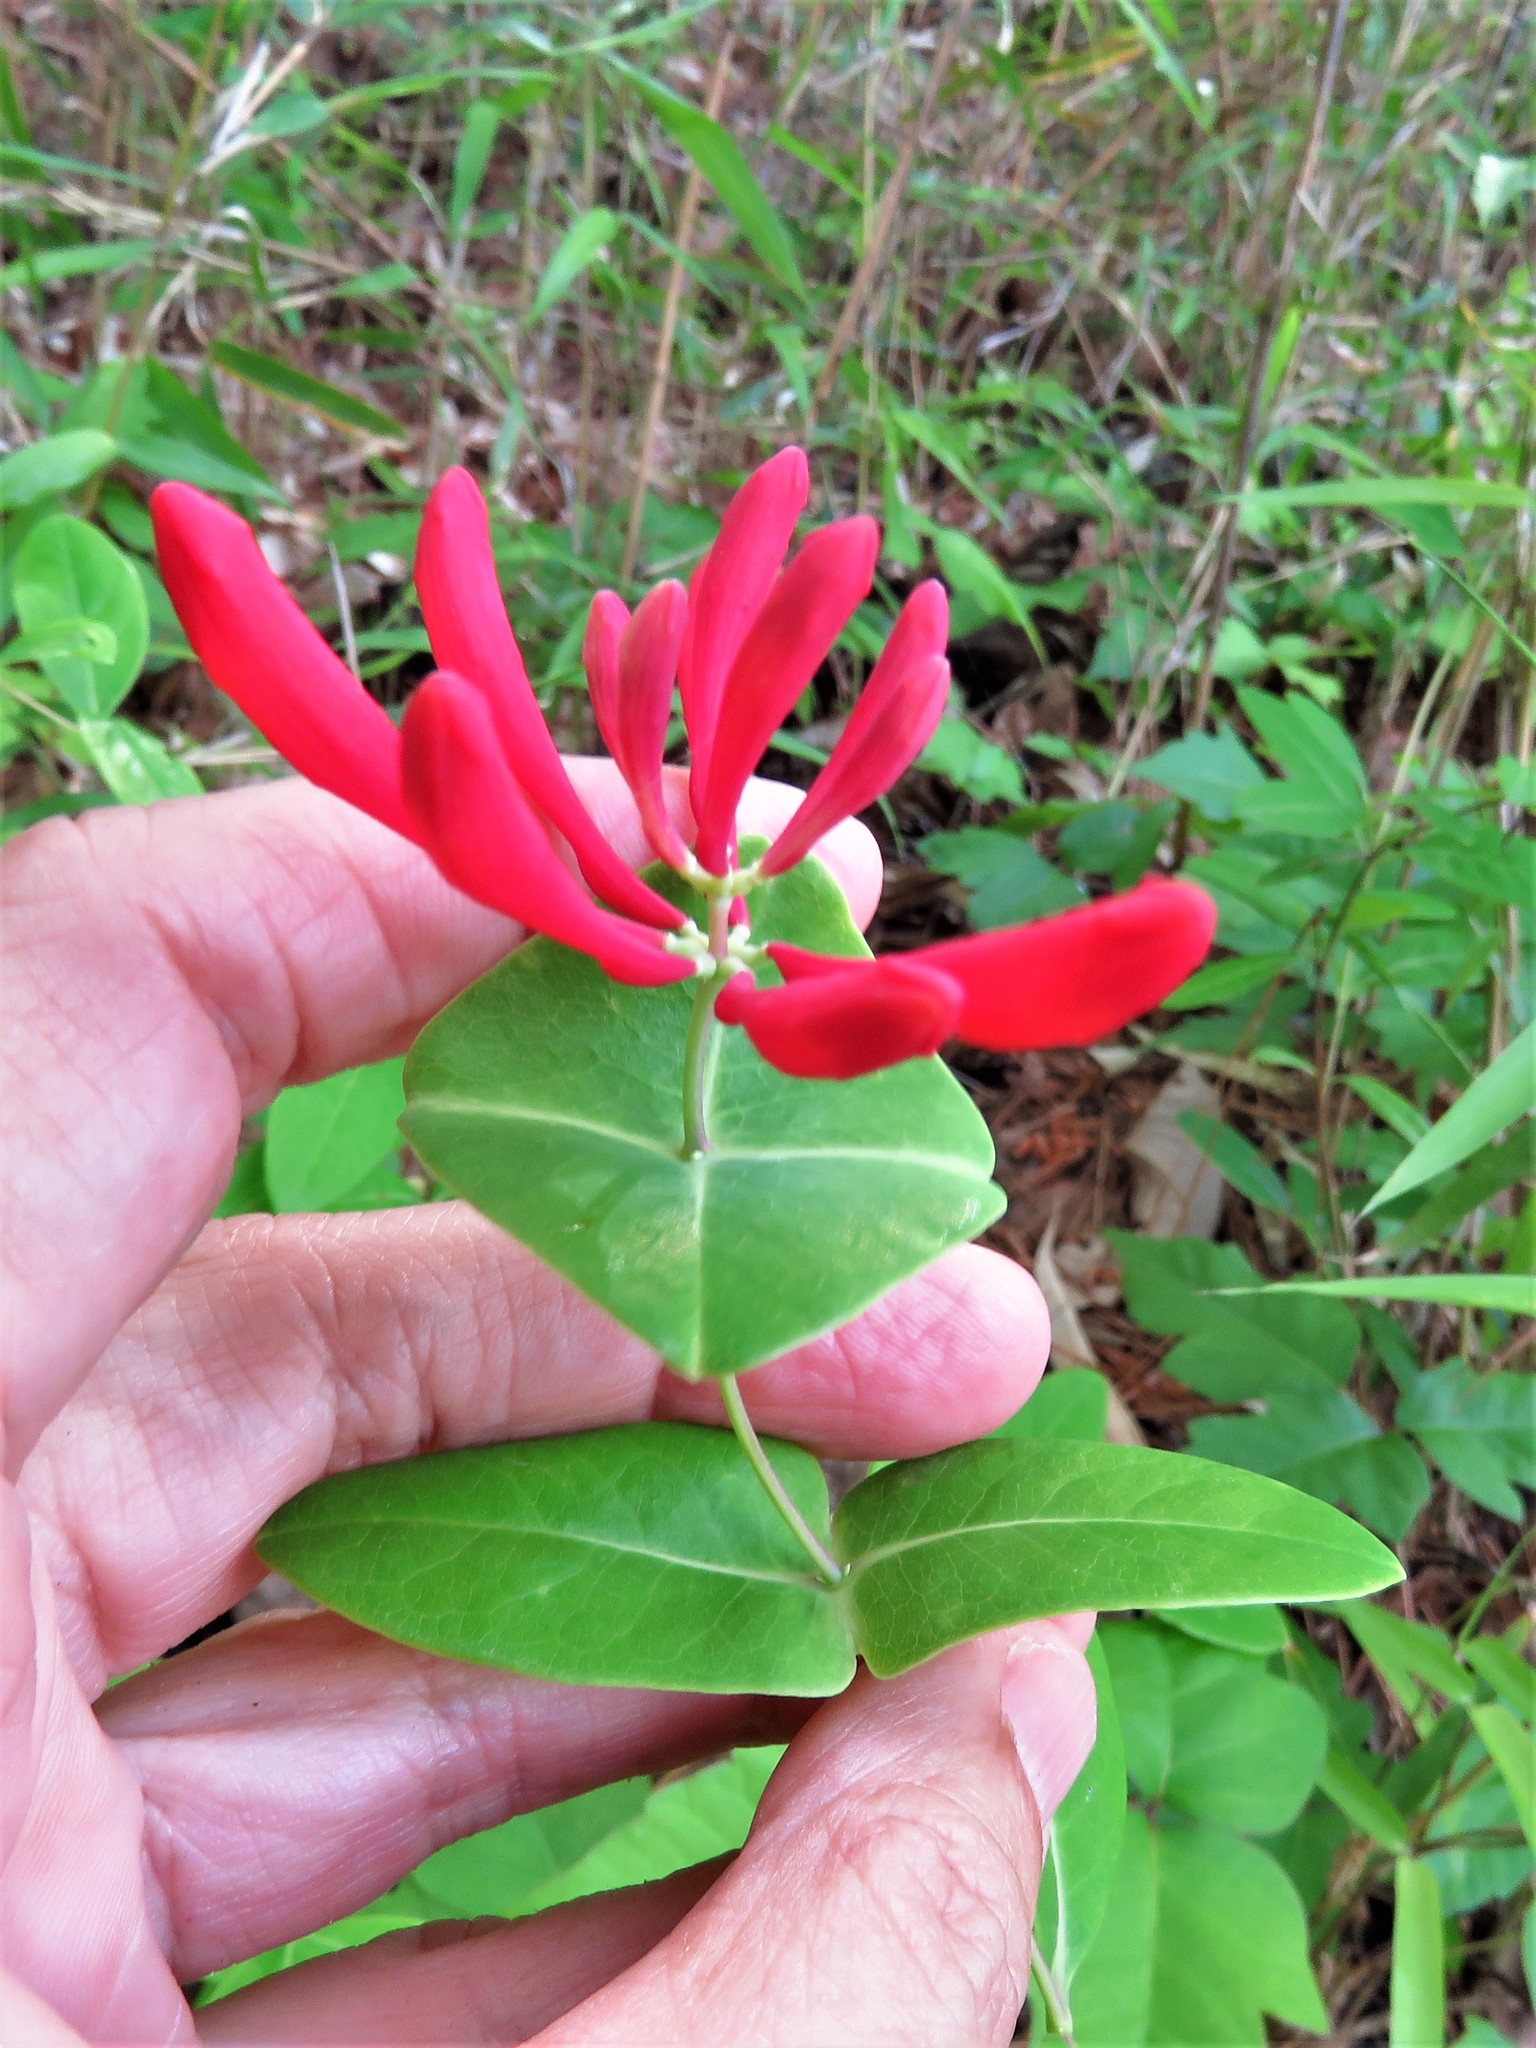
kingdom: Plantae
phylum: Tracheophyta
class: Magnoliopsida
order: Dipsacales
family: Caprifoliaceae
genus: Lonicera
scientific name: Lonicera sempervirens
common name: Coral honeysuckle
